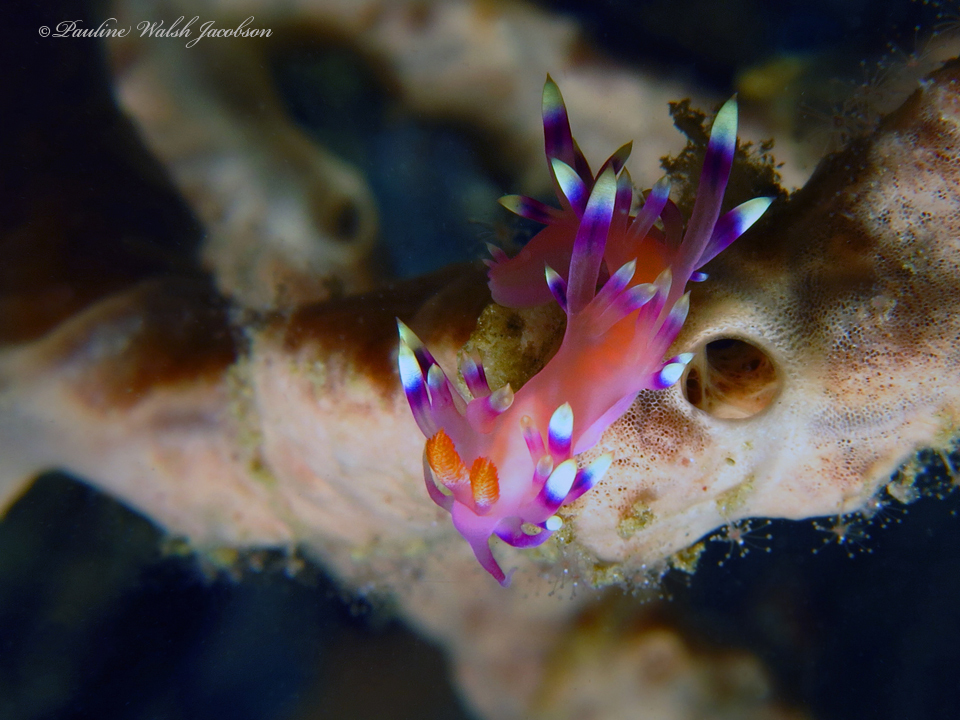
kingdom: Animalia
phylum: Mollusca
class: Gastropoda
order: Nudibranchia
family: Flabellinidae
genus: Coryphellina
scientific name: Coryphellina exoptata
